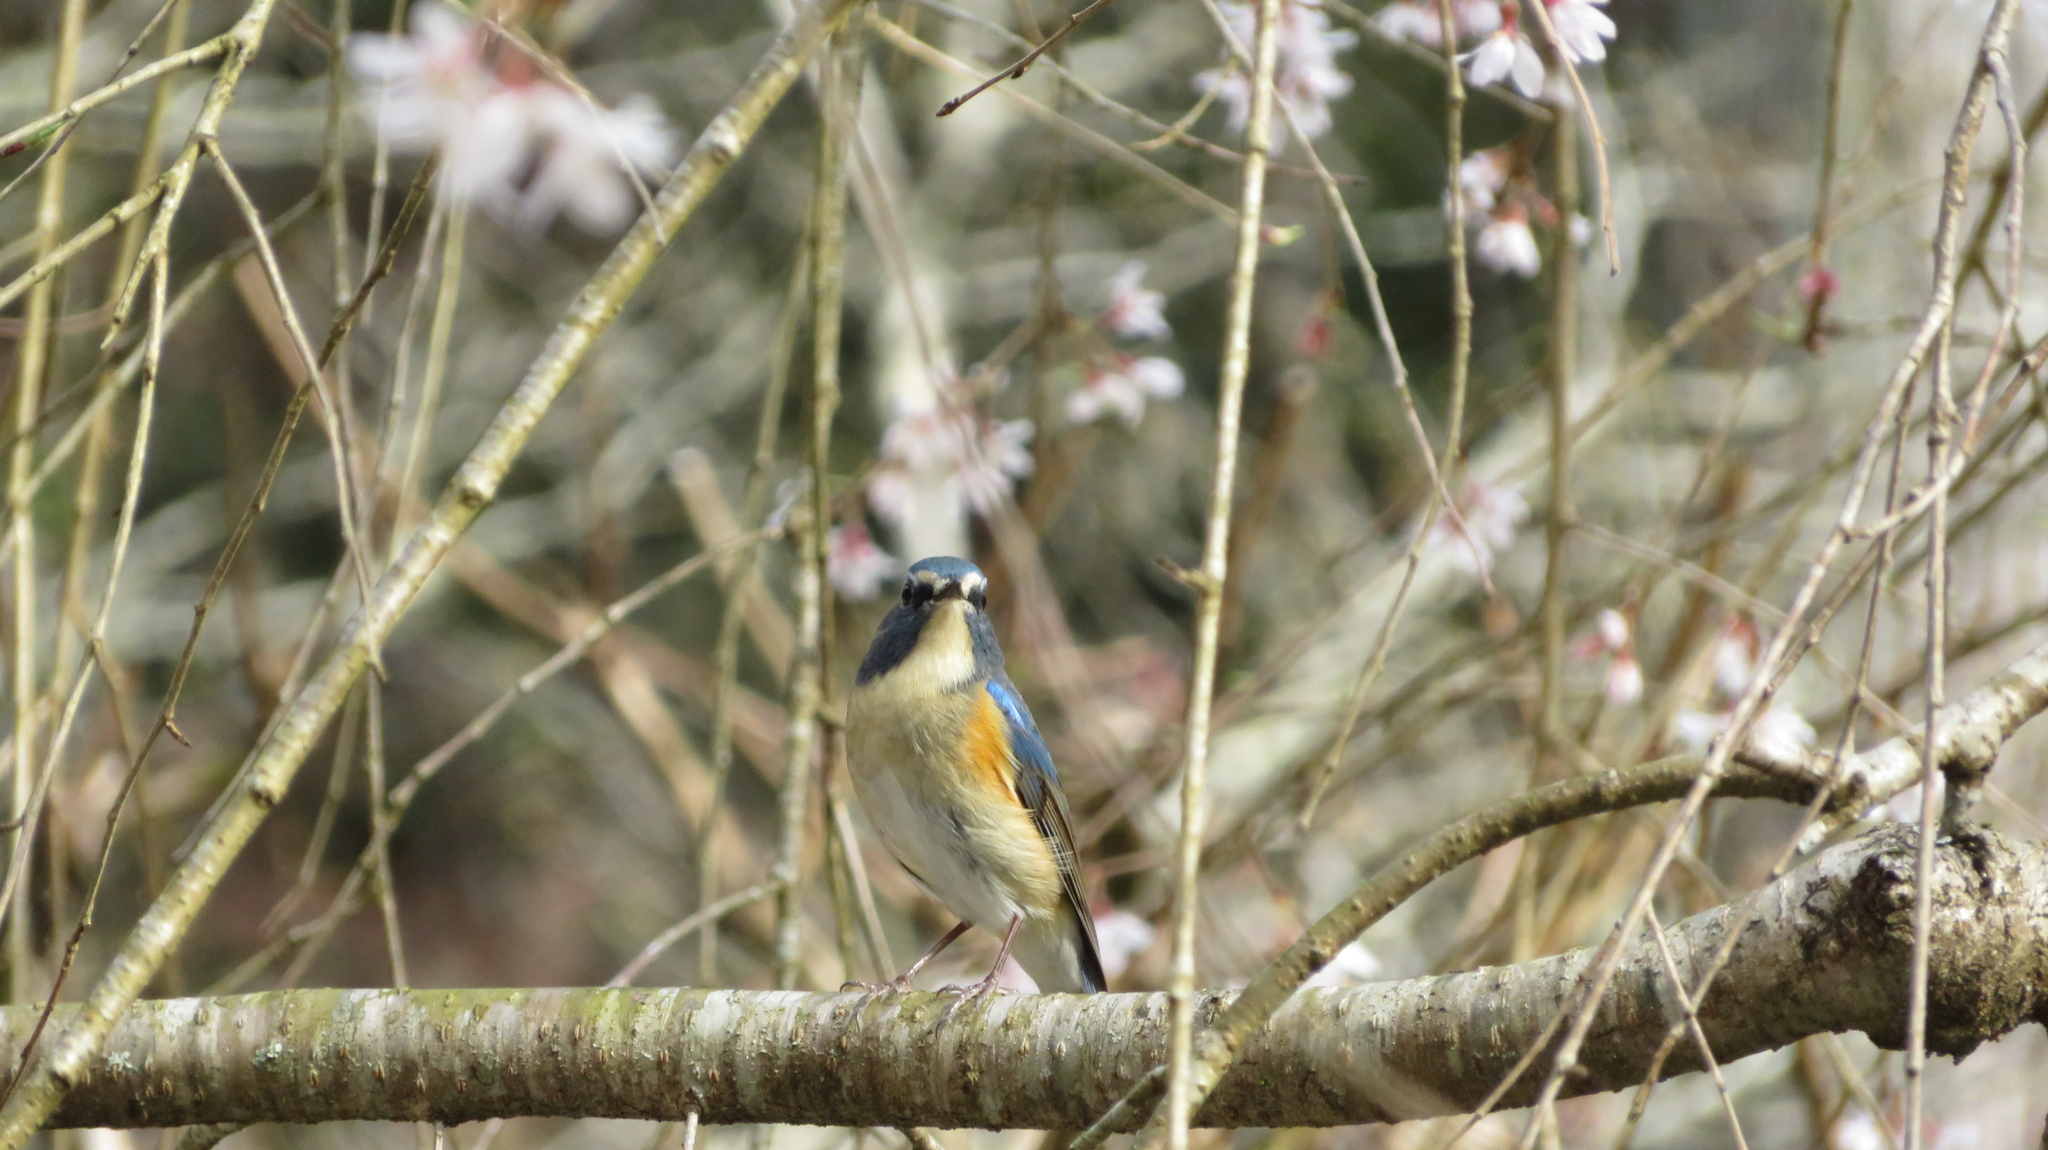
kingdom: Animalia
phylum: Chordata
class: Aves
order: Passeriformes
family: Muscicapidae
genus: Tarsiger
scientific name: Tarsiger cyanurus
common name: Red-flanked bluetail
